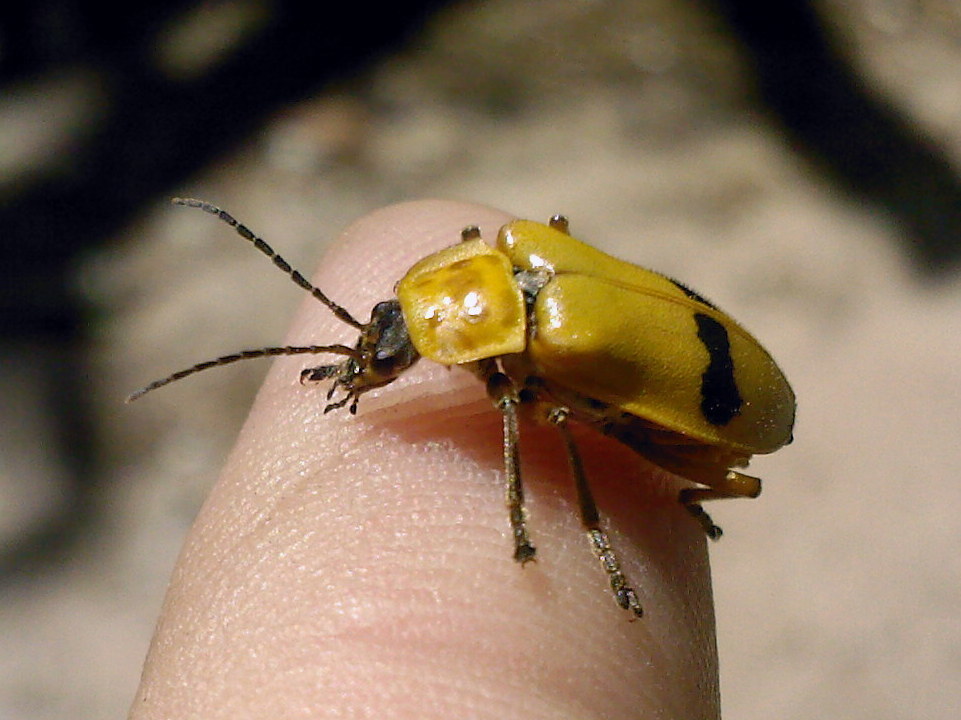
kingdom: Animalia
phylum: Arthropoda
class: Insecta
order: Coleoptera
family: Cantharidae
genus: Chauliognathus
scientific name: Chauliognathus
